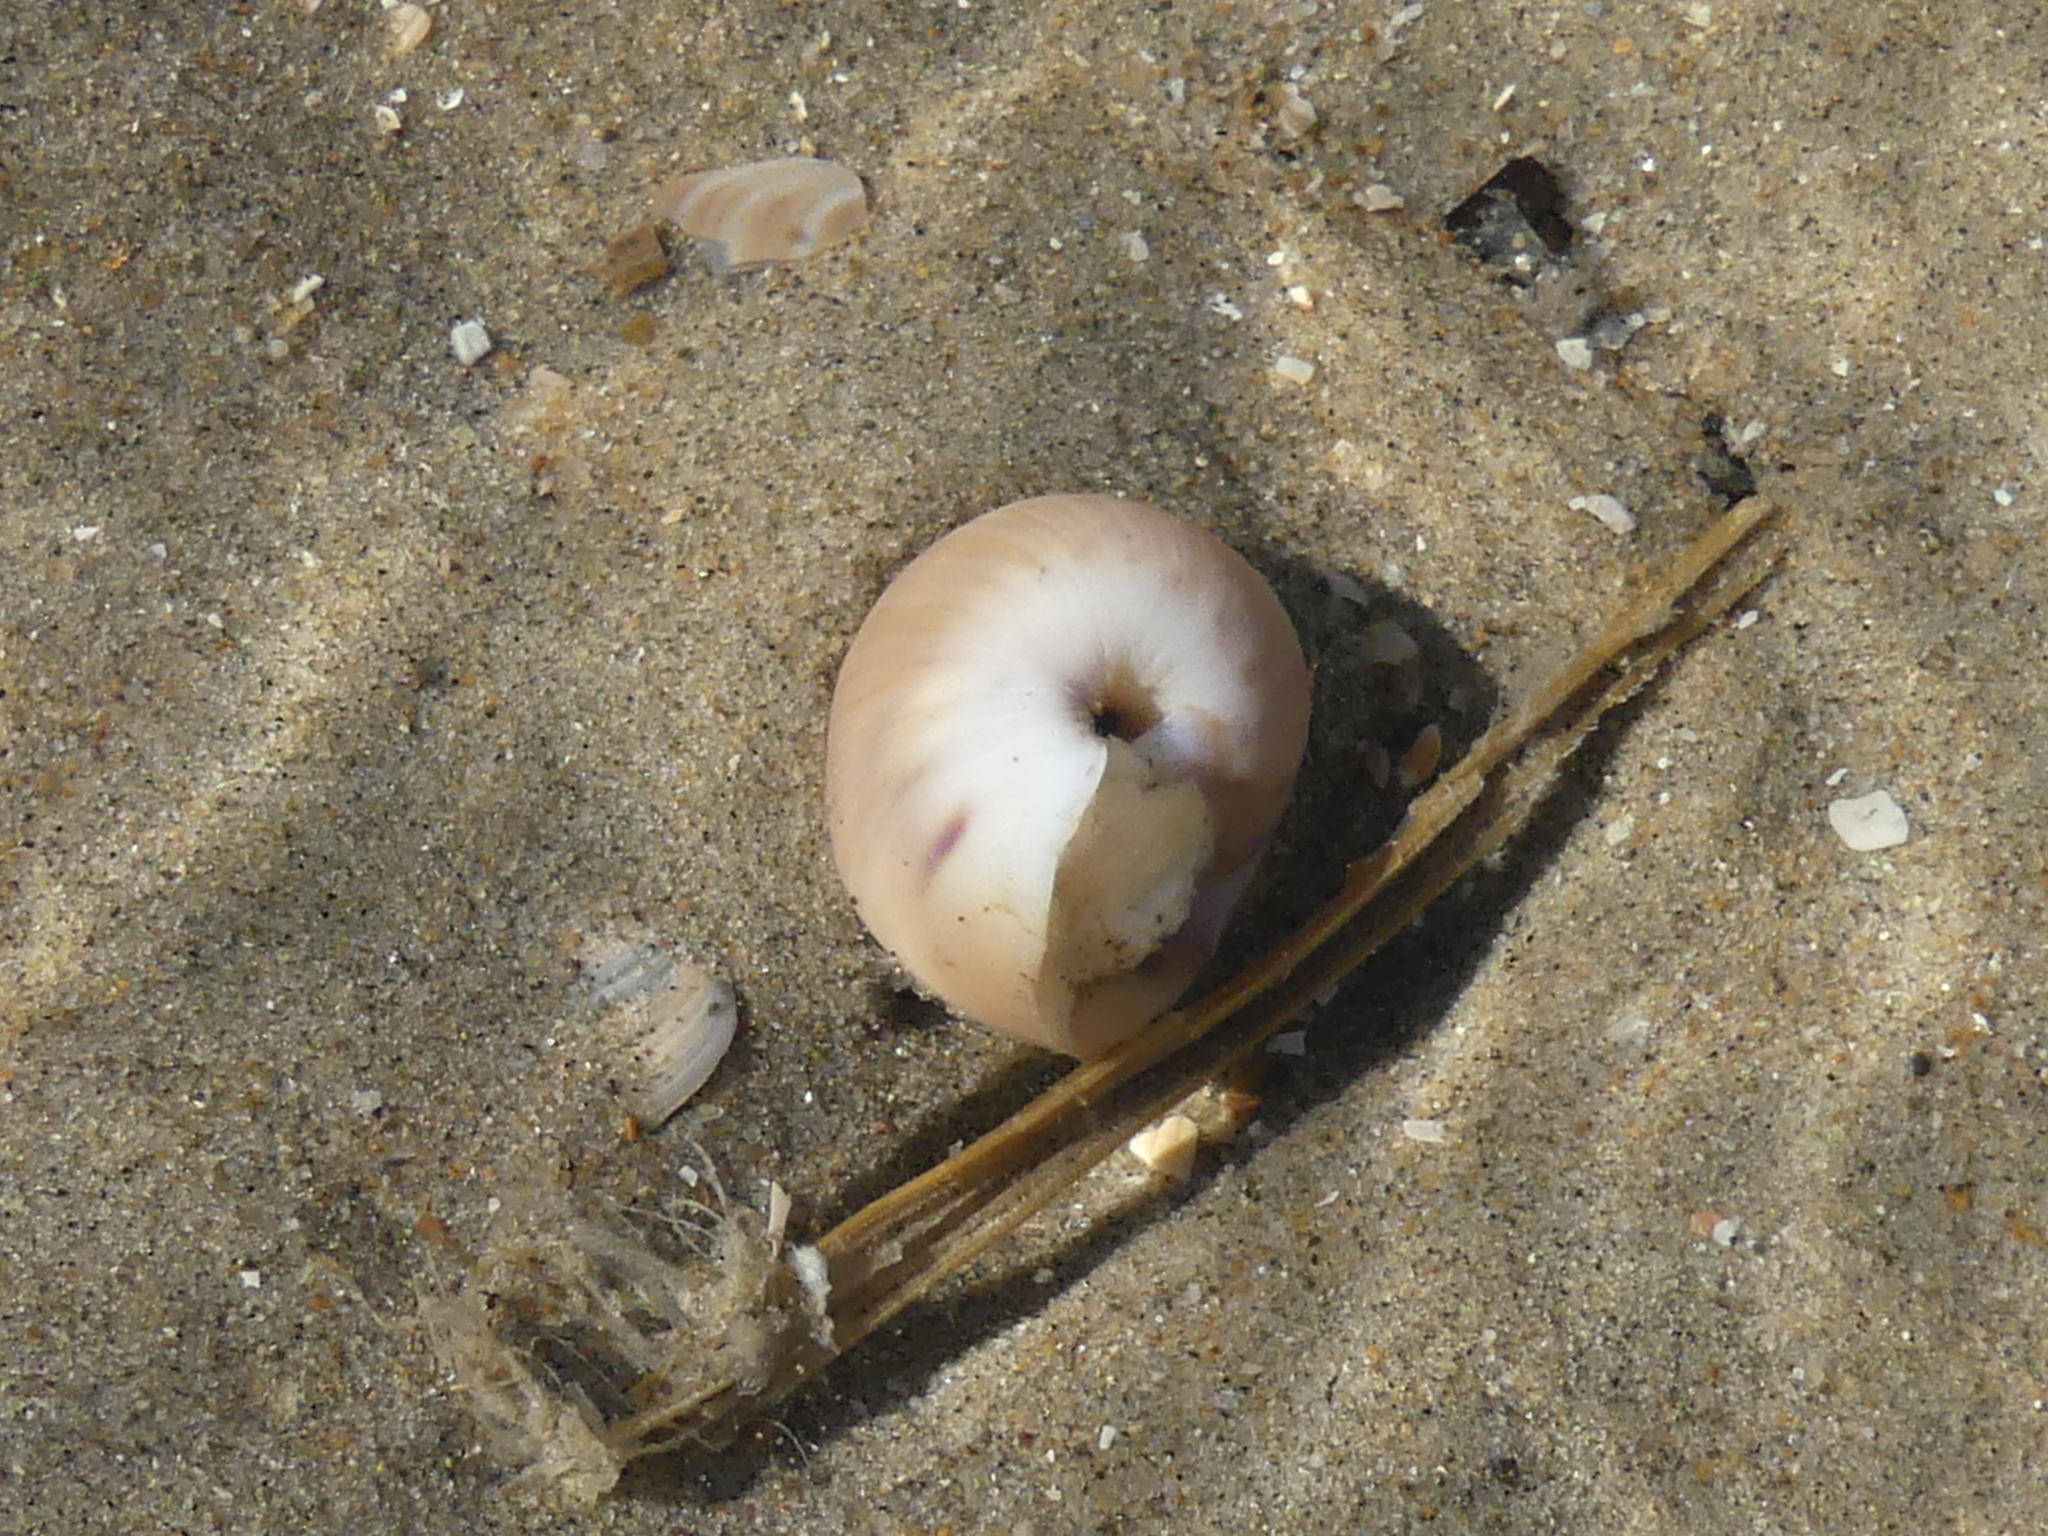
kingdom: Animalia
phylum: Mollusca
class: Gastropoda
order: Littorinimorpha
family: Naticidae
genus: Euspira
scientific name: Euspira catena
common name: Necklace shell
